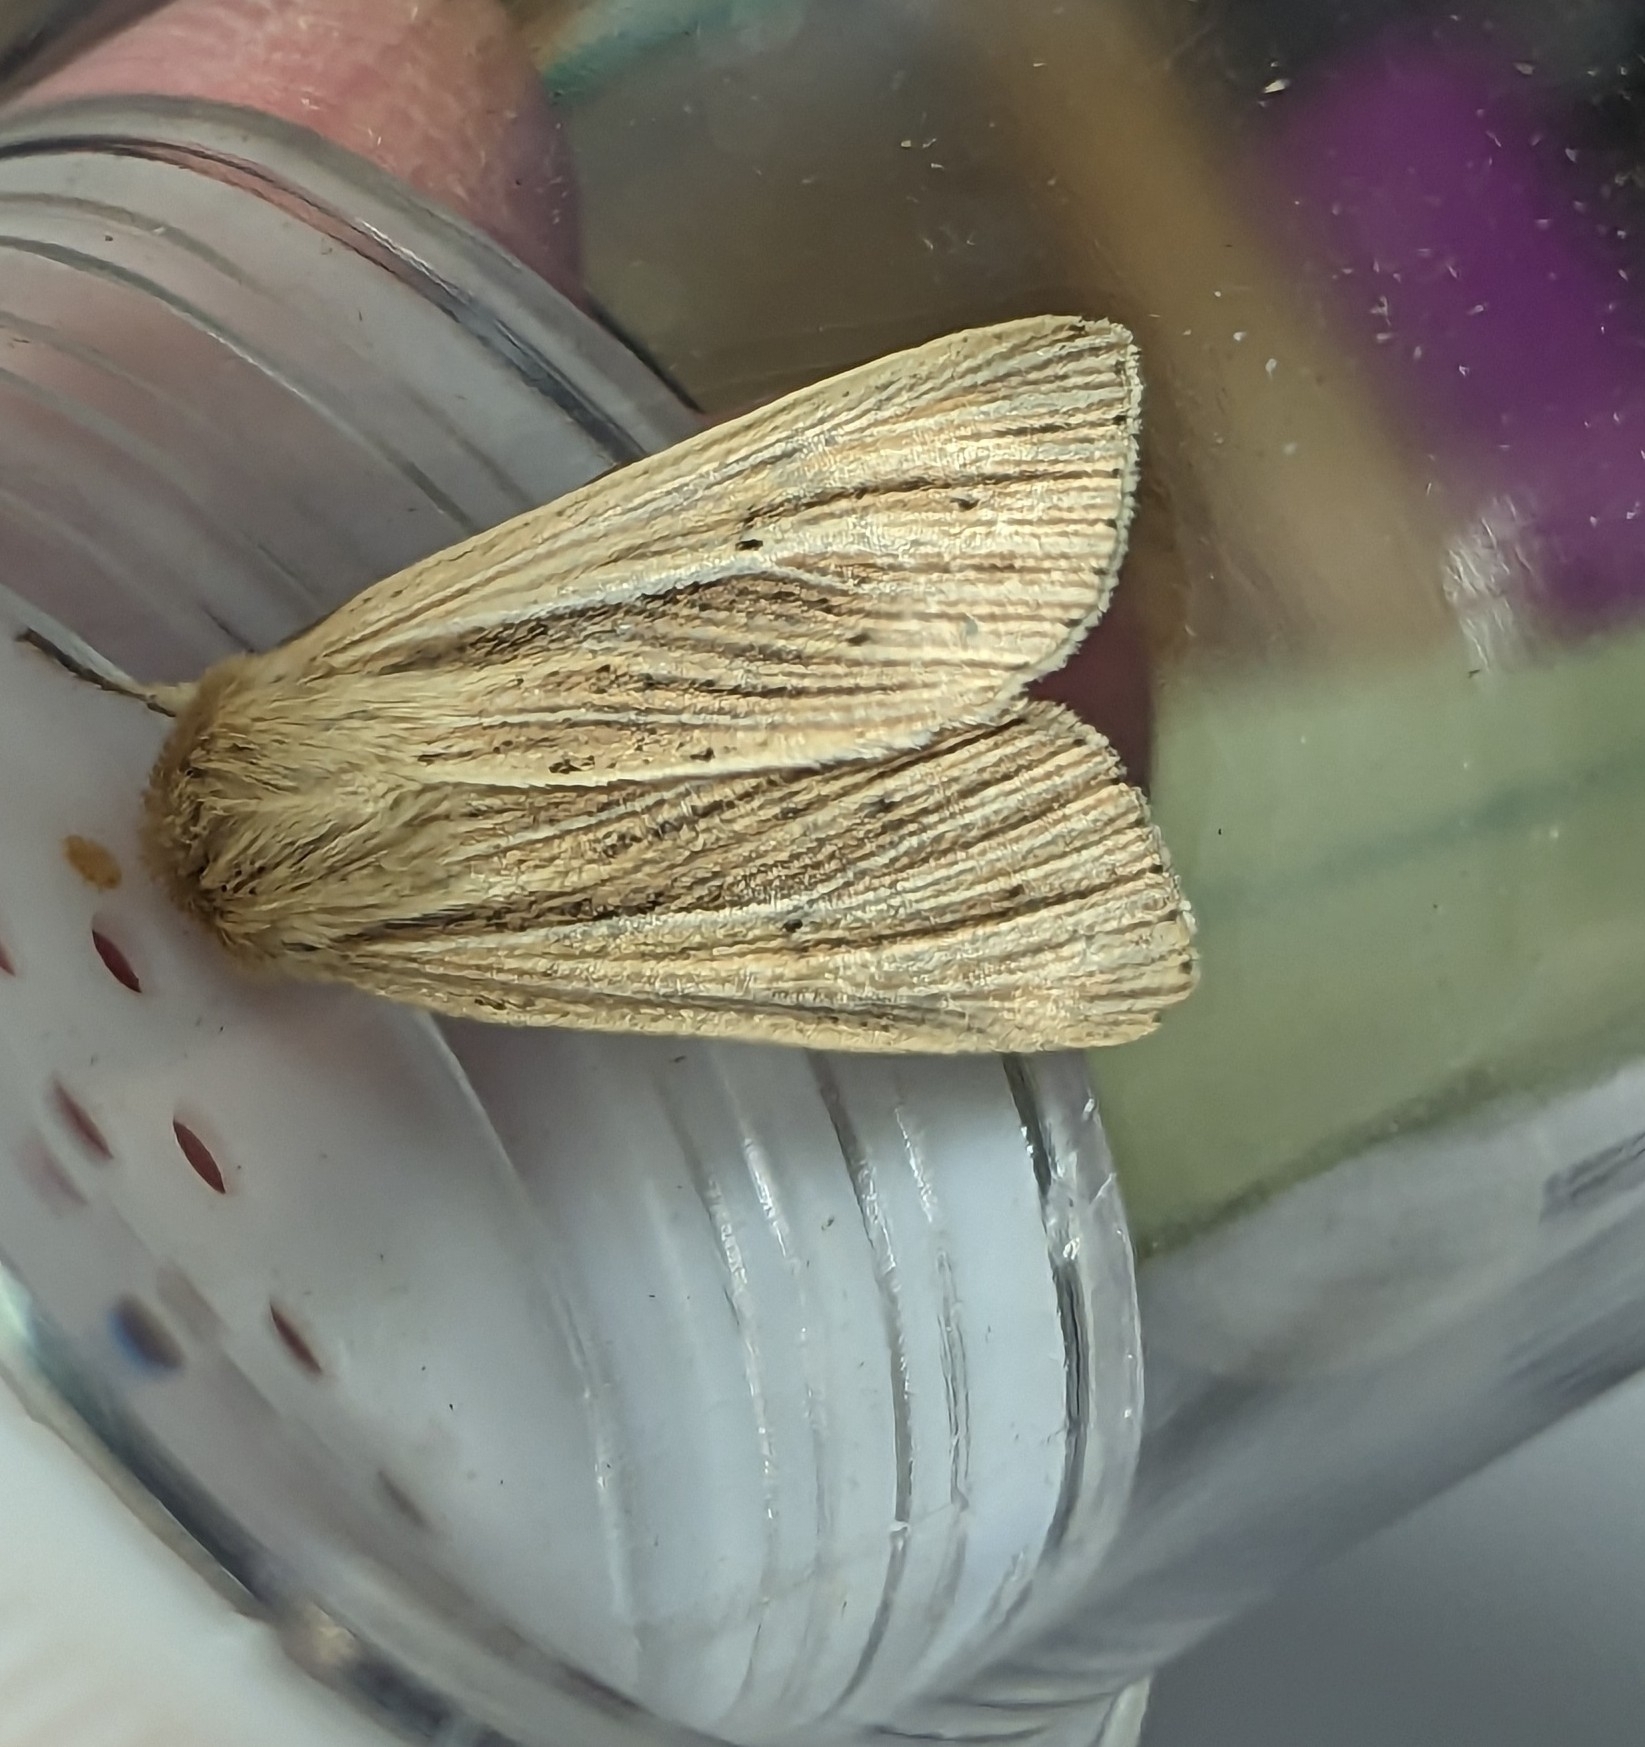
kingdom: Animalia
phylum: Arthropoda
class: Insecta
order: Lepidoptera
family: Noctuidae
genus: Mythimna
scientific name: Mythimna impura
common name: Smoky wainscot
